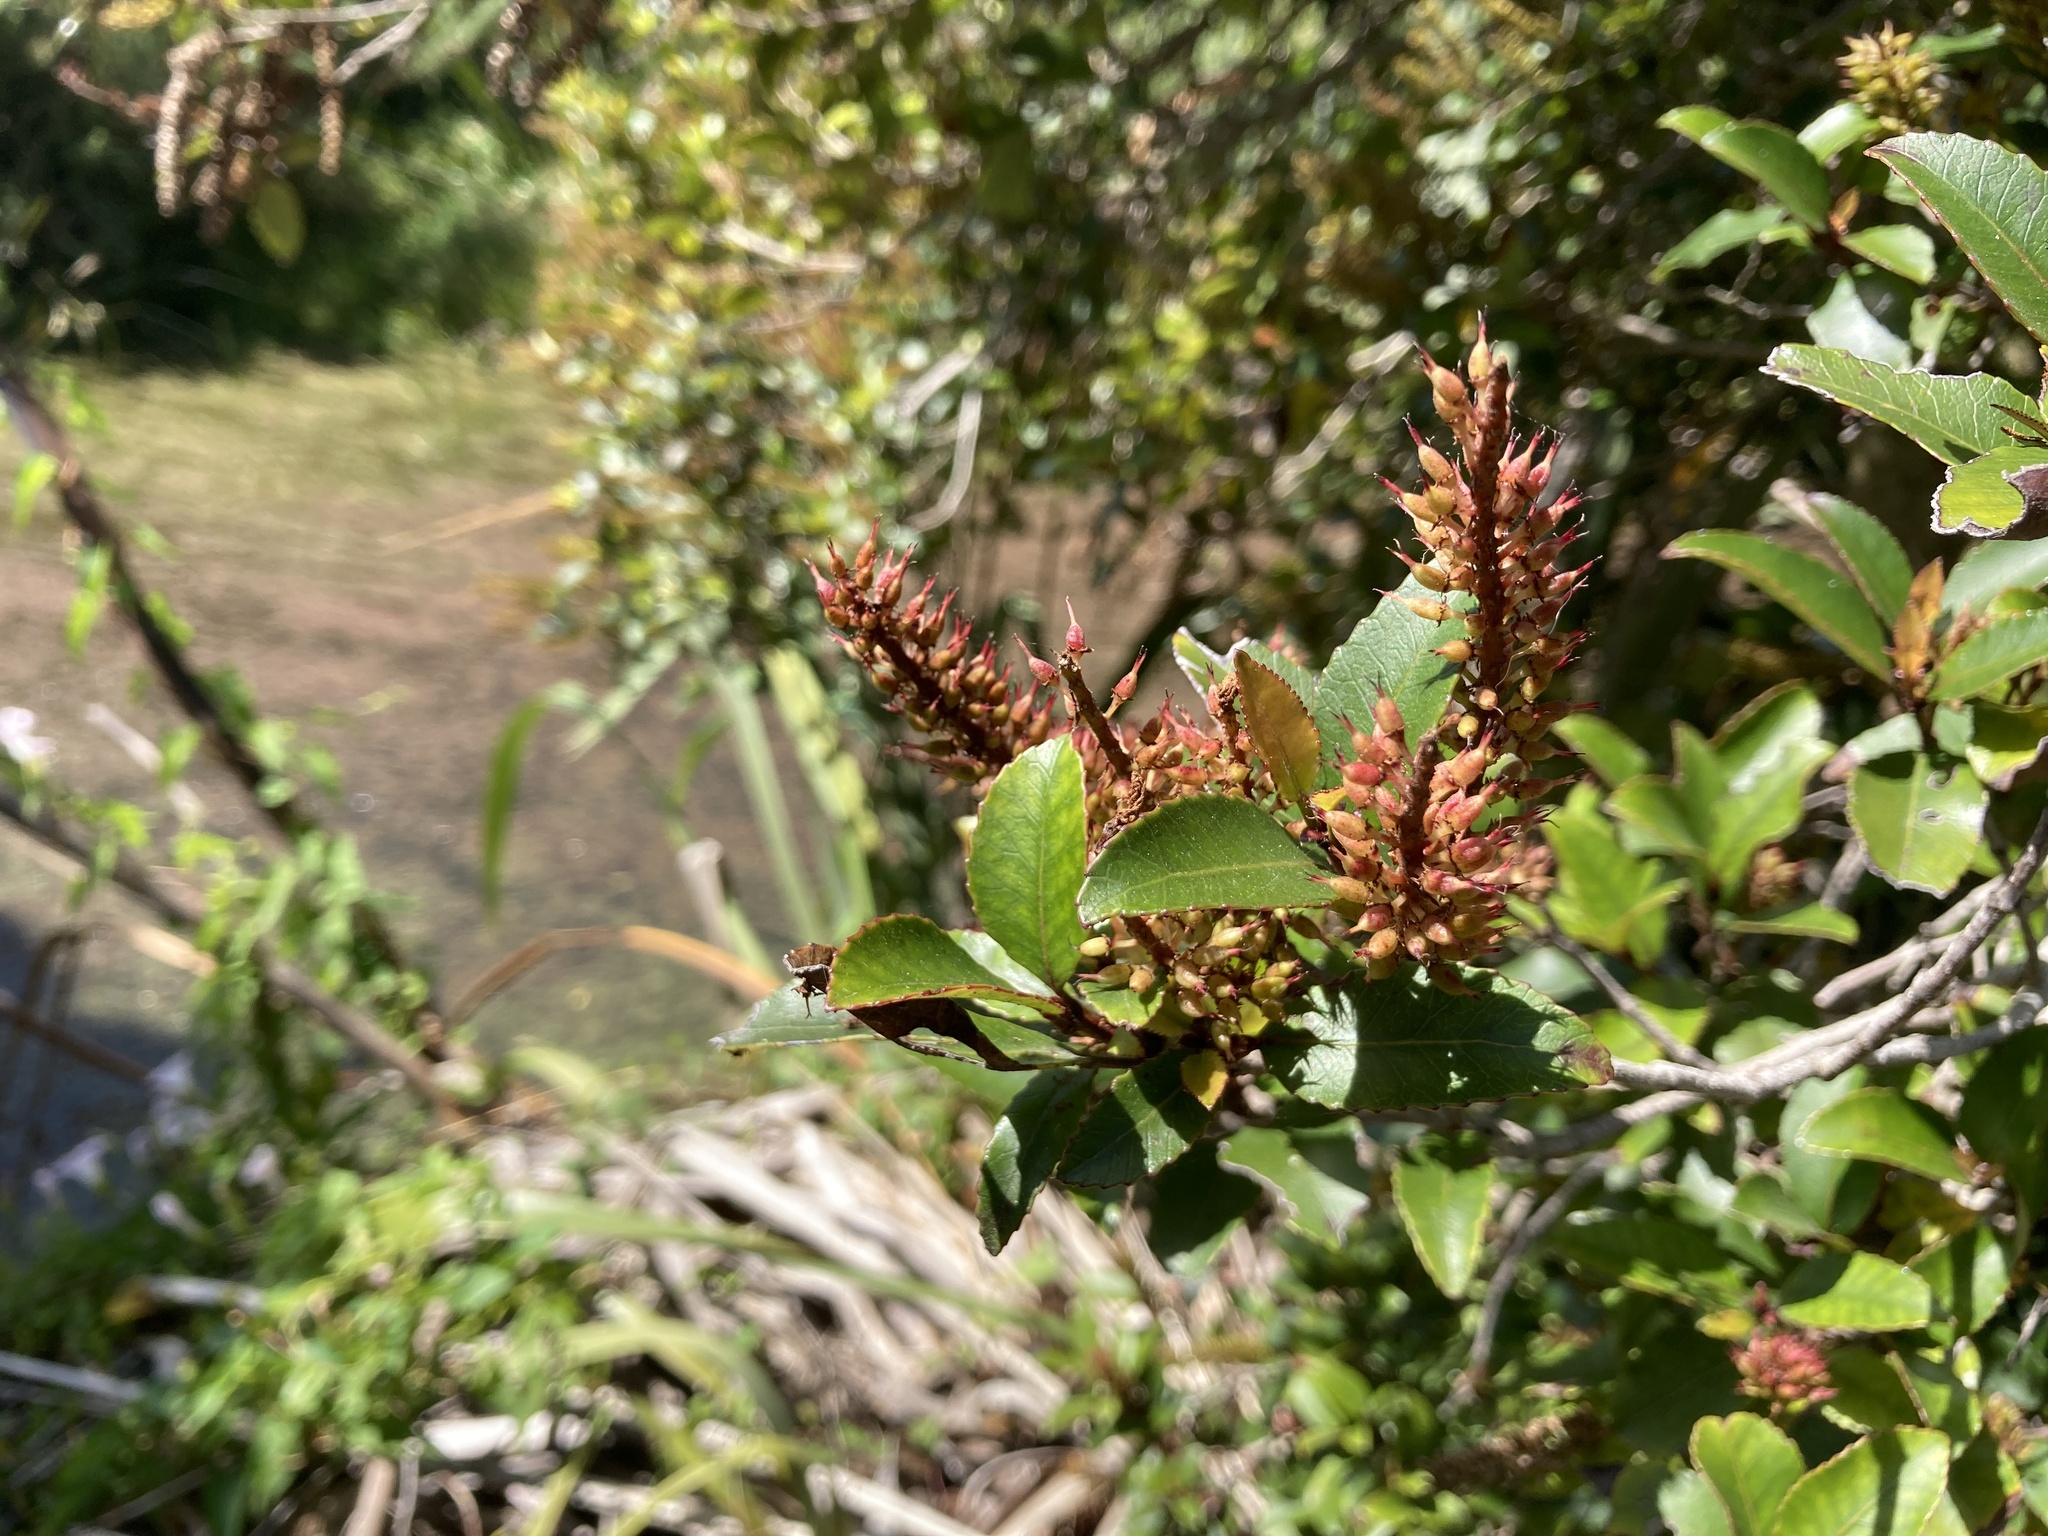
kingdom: Plantae
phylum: Tracheophyta
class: Magnoliopsida
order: Oxalidales
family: Cunoniaceae
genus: Pterophylla
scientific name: Pterophylla racemosa
